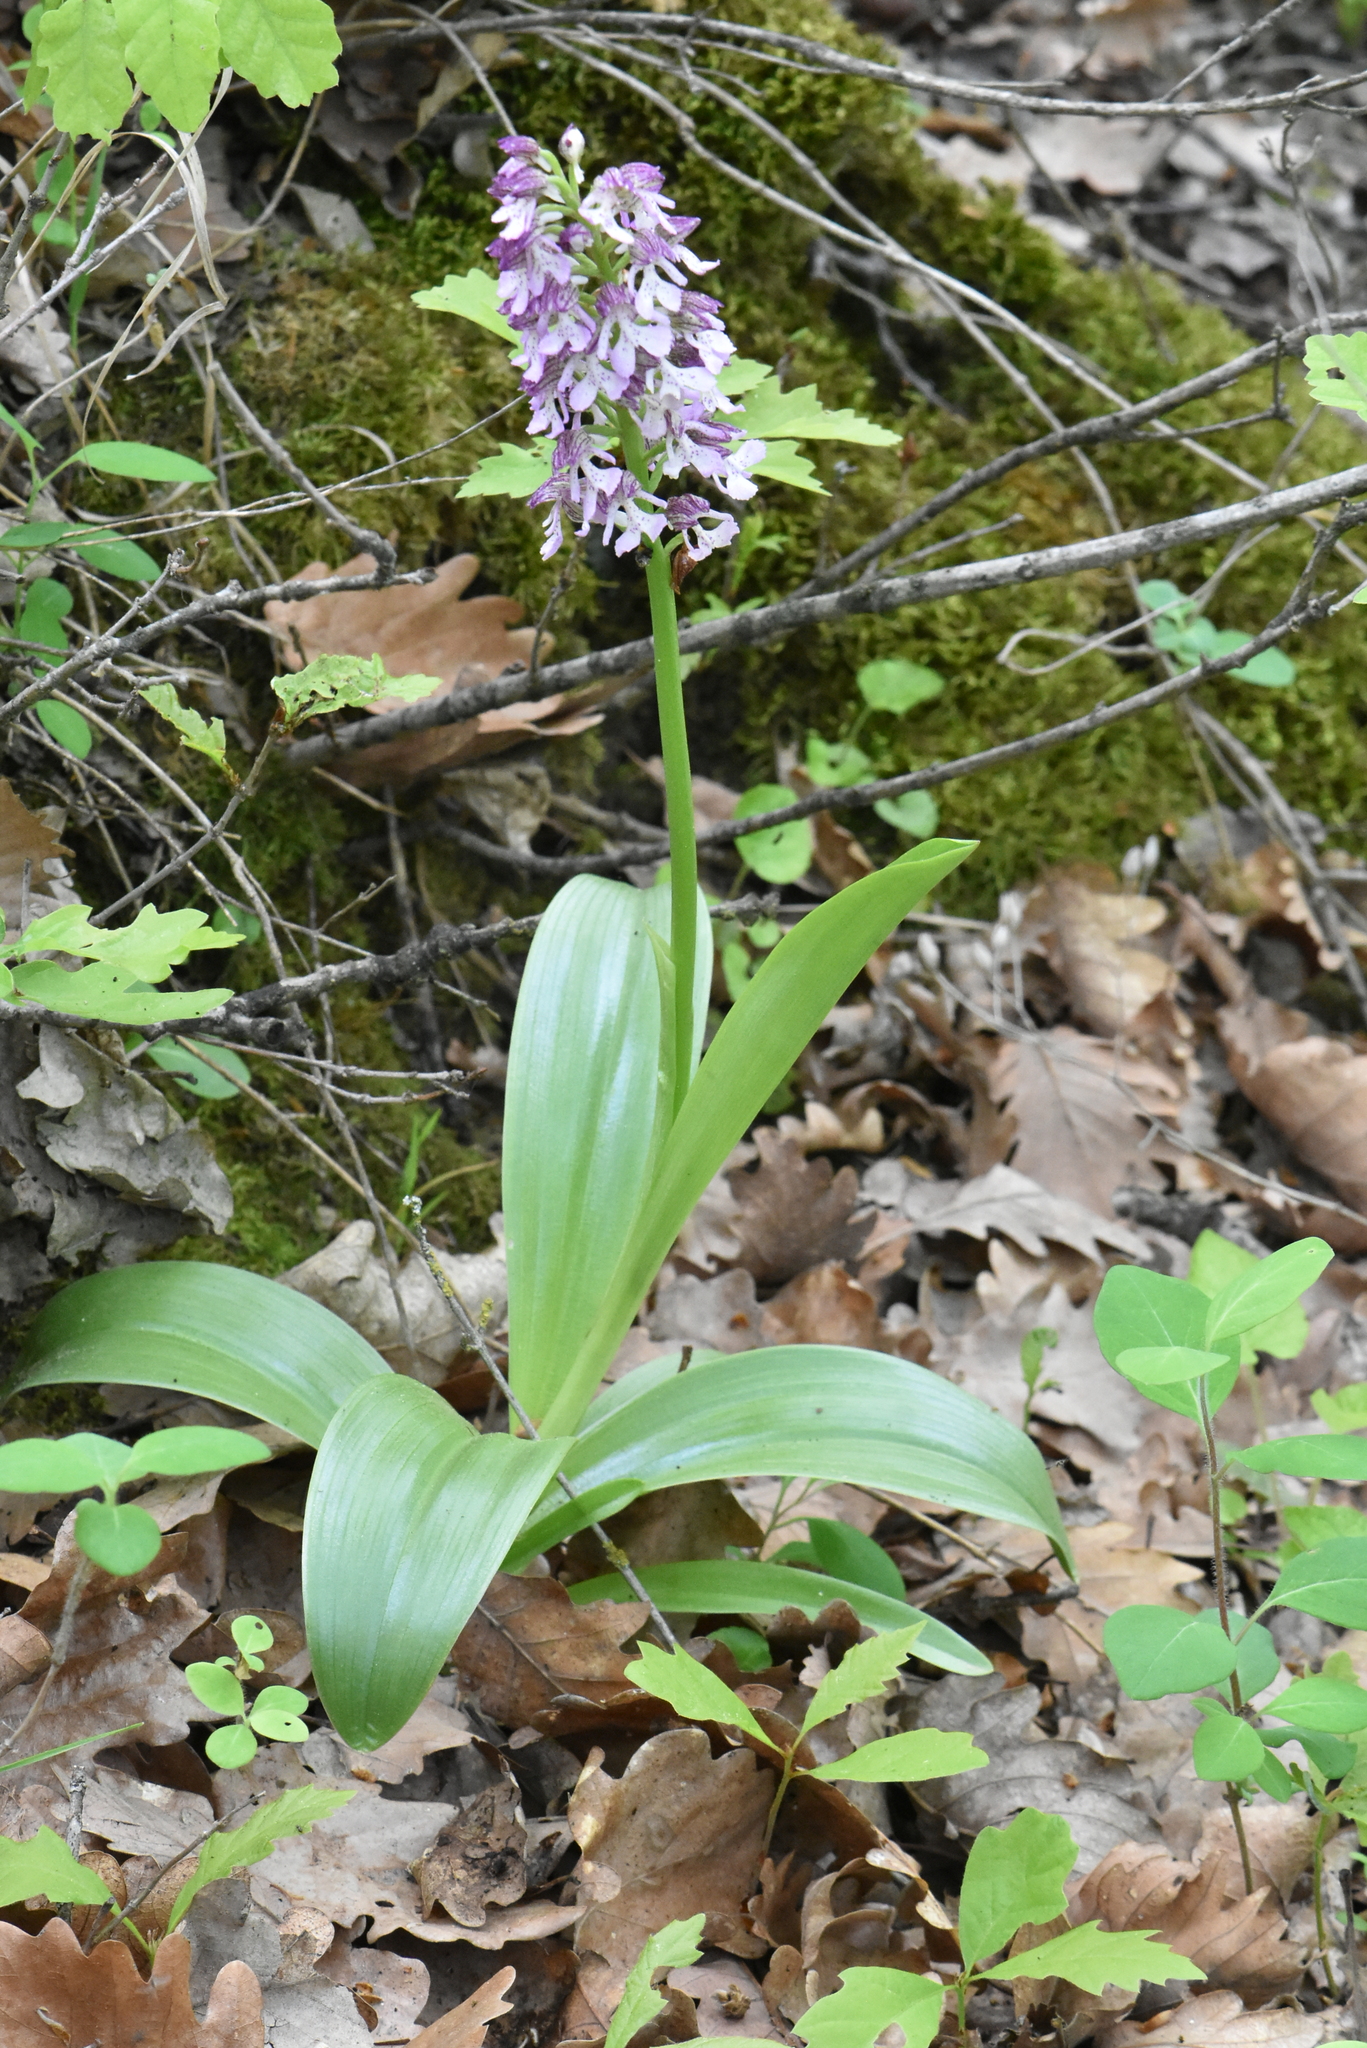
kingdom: Plantae
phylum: Tracheophyta
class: Liliopsida
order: Asparagales
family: Orchidaceae
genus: Orchis
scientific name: Orchis purpurea
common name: Lady orchid
